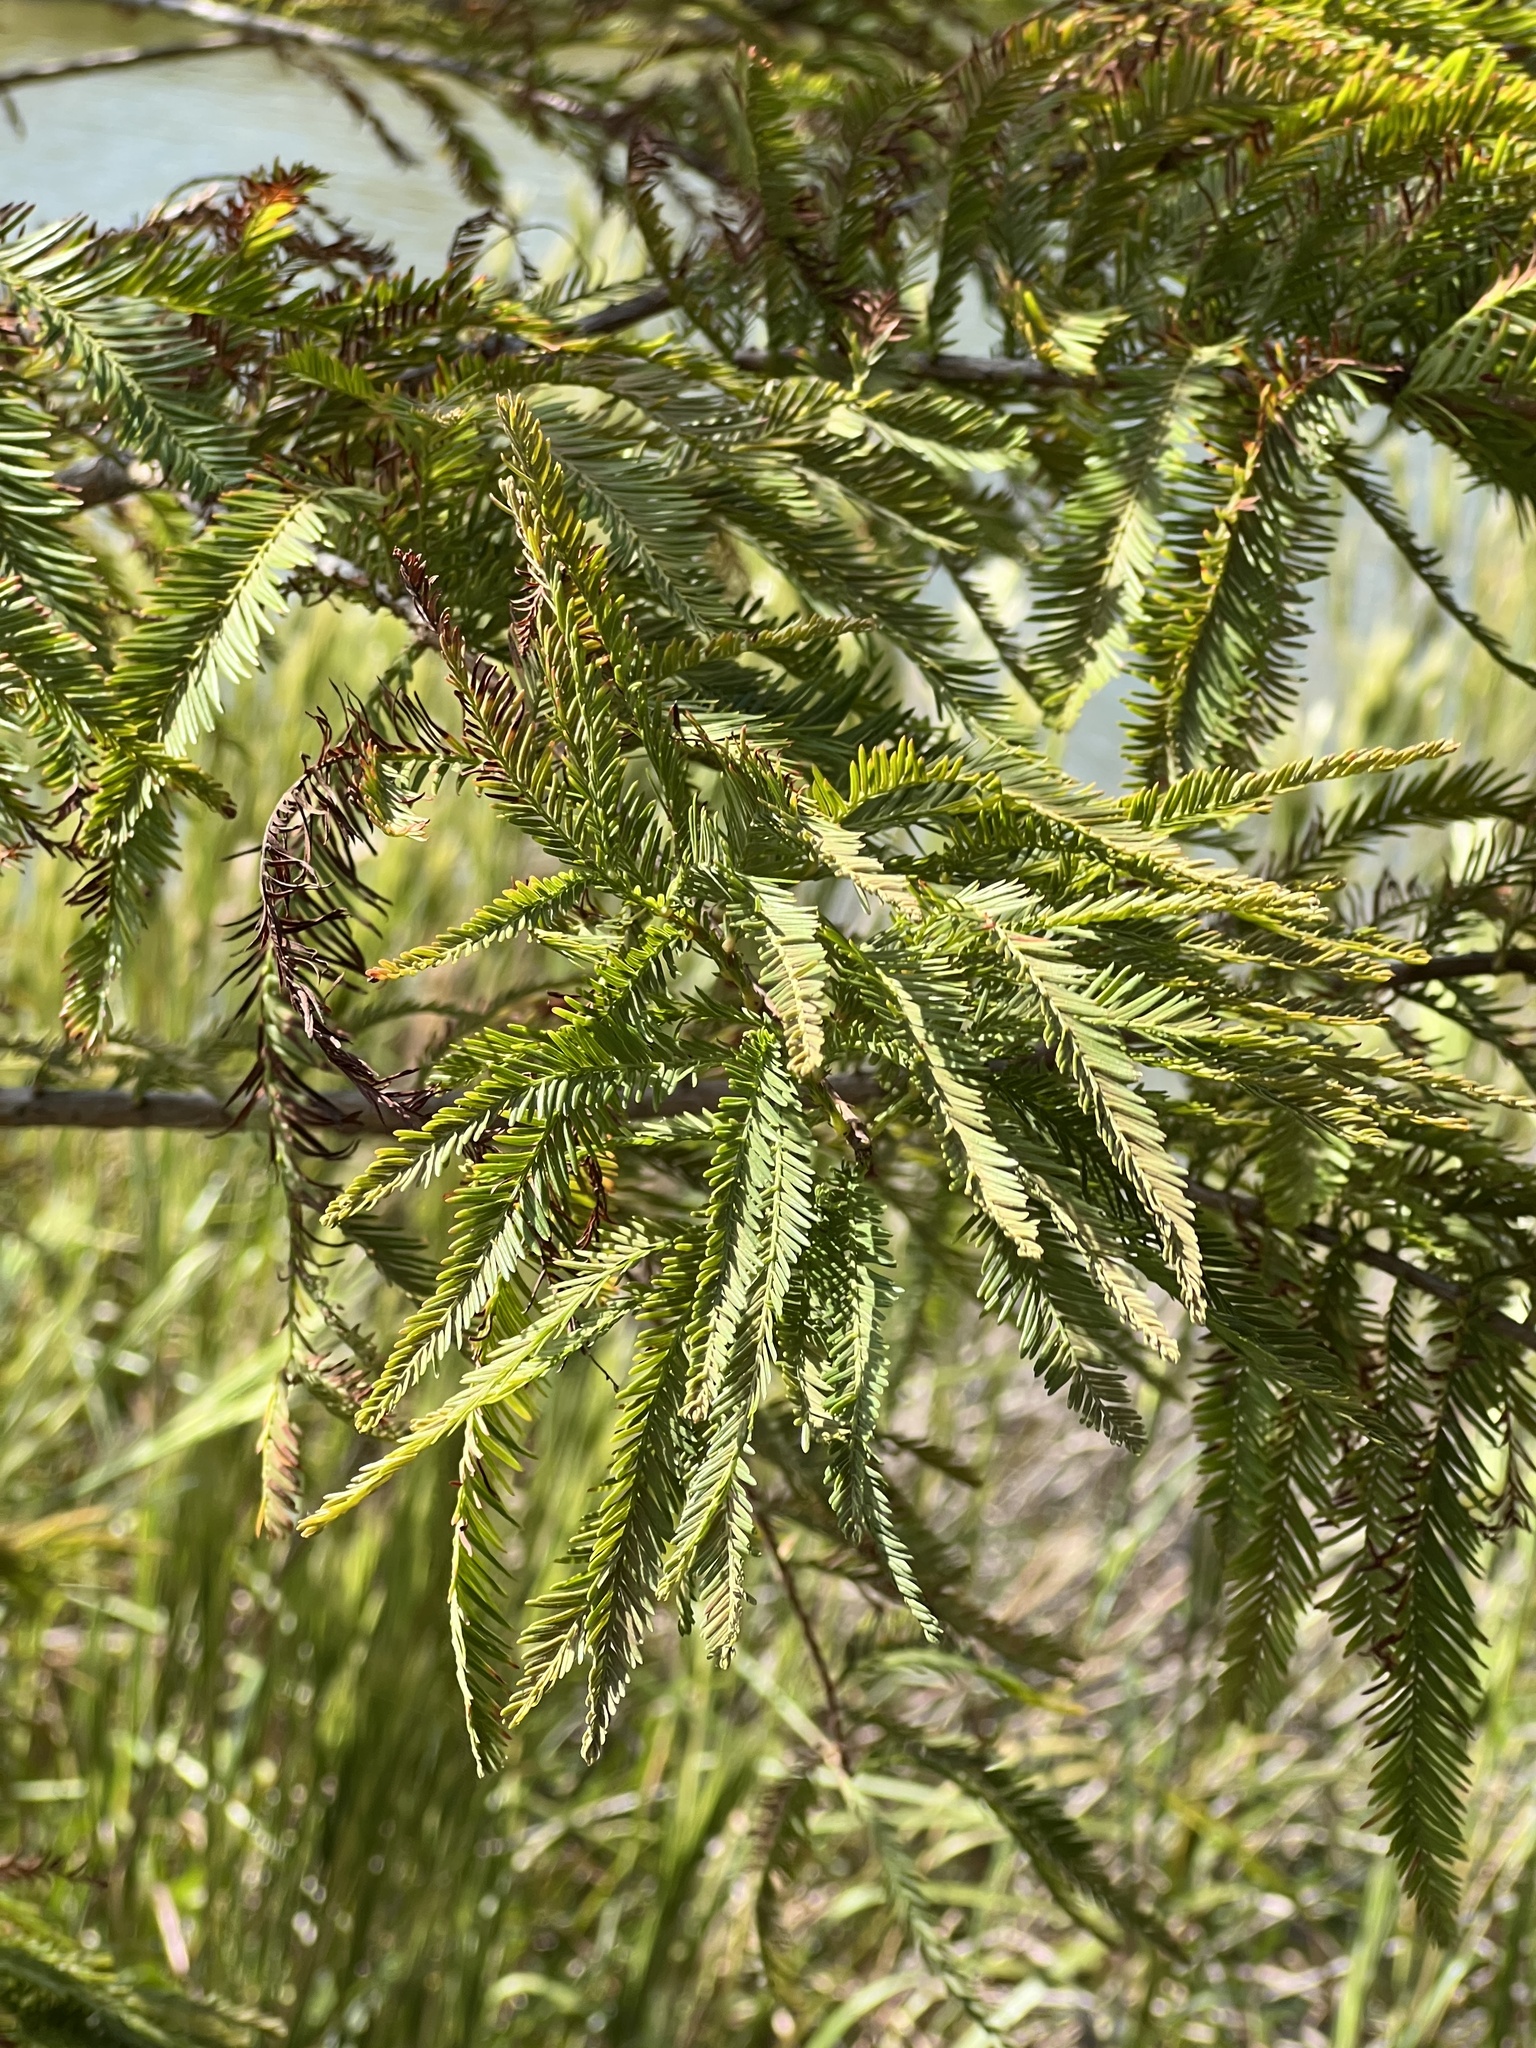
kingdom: Plantae
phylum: Tracheophyta
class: Pinopsida
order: Pinales
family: Cupressaceae
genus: Taxodium
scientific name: Taxodium distichum
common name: Bald cypress
